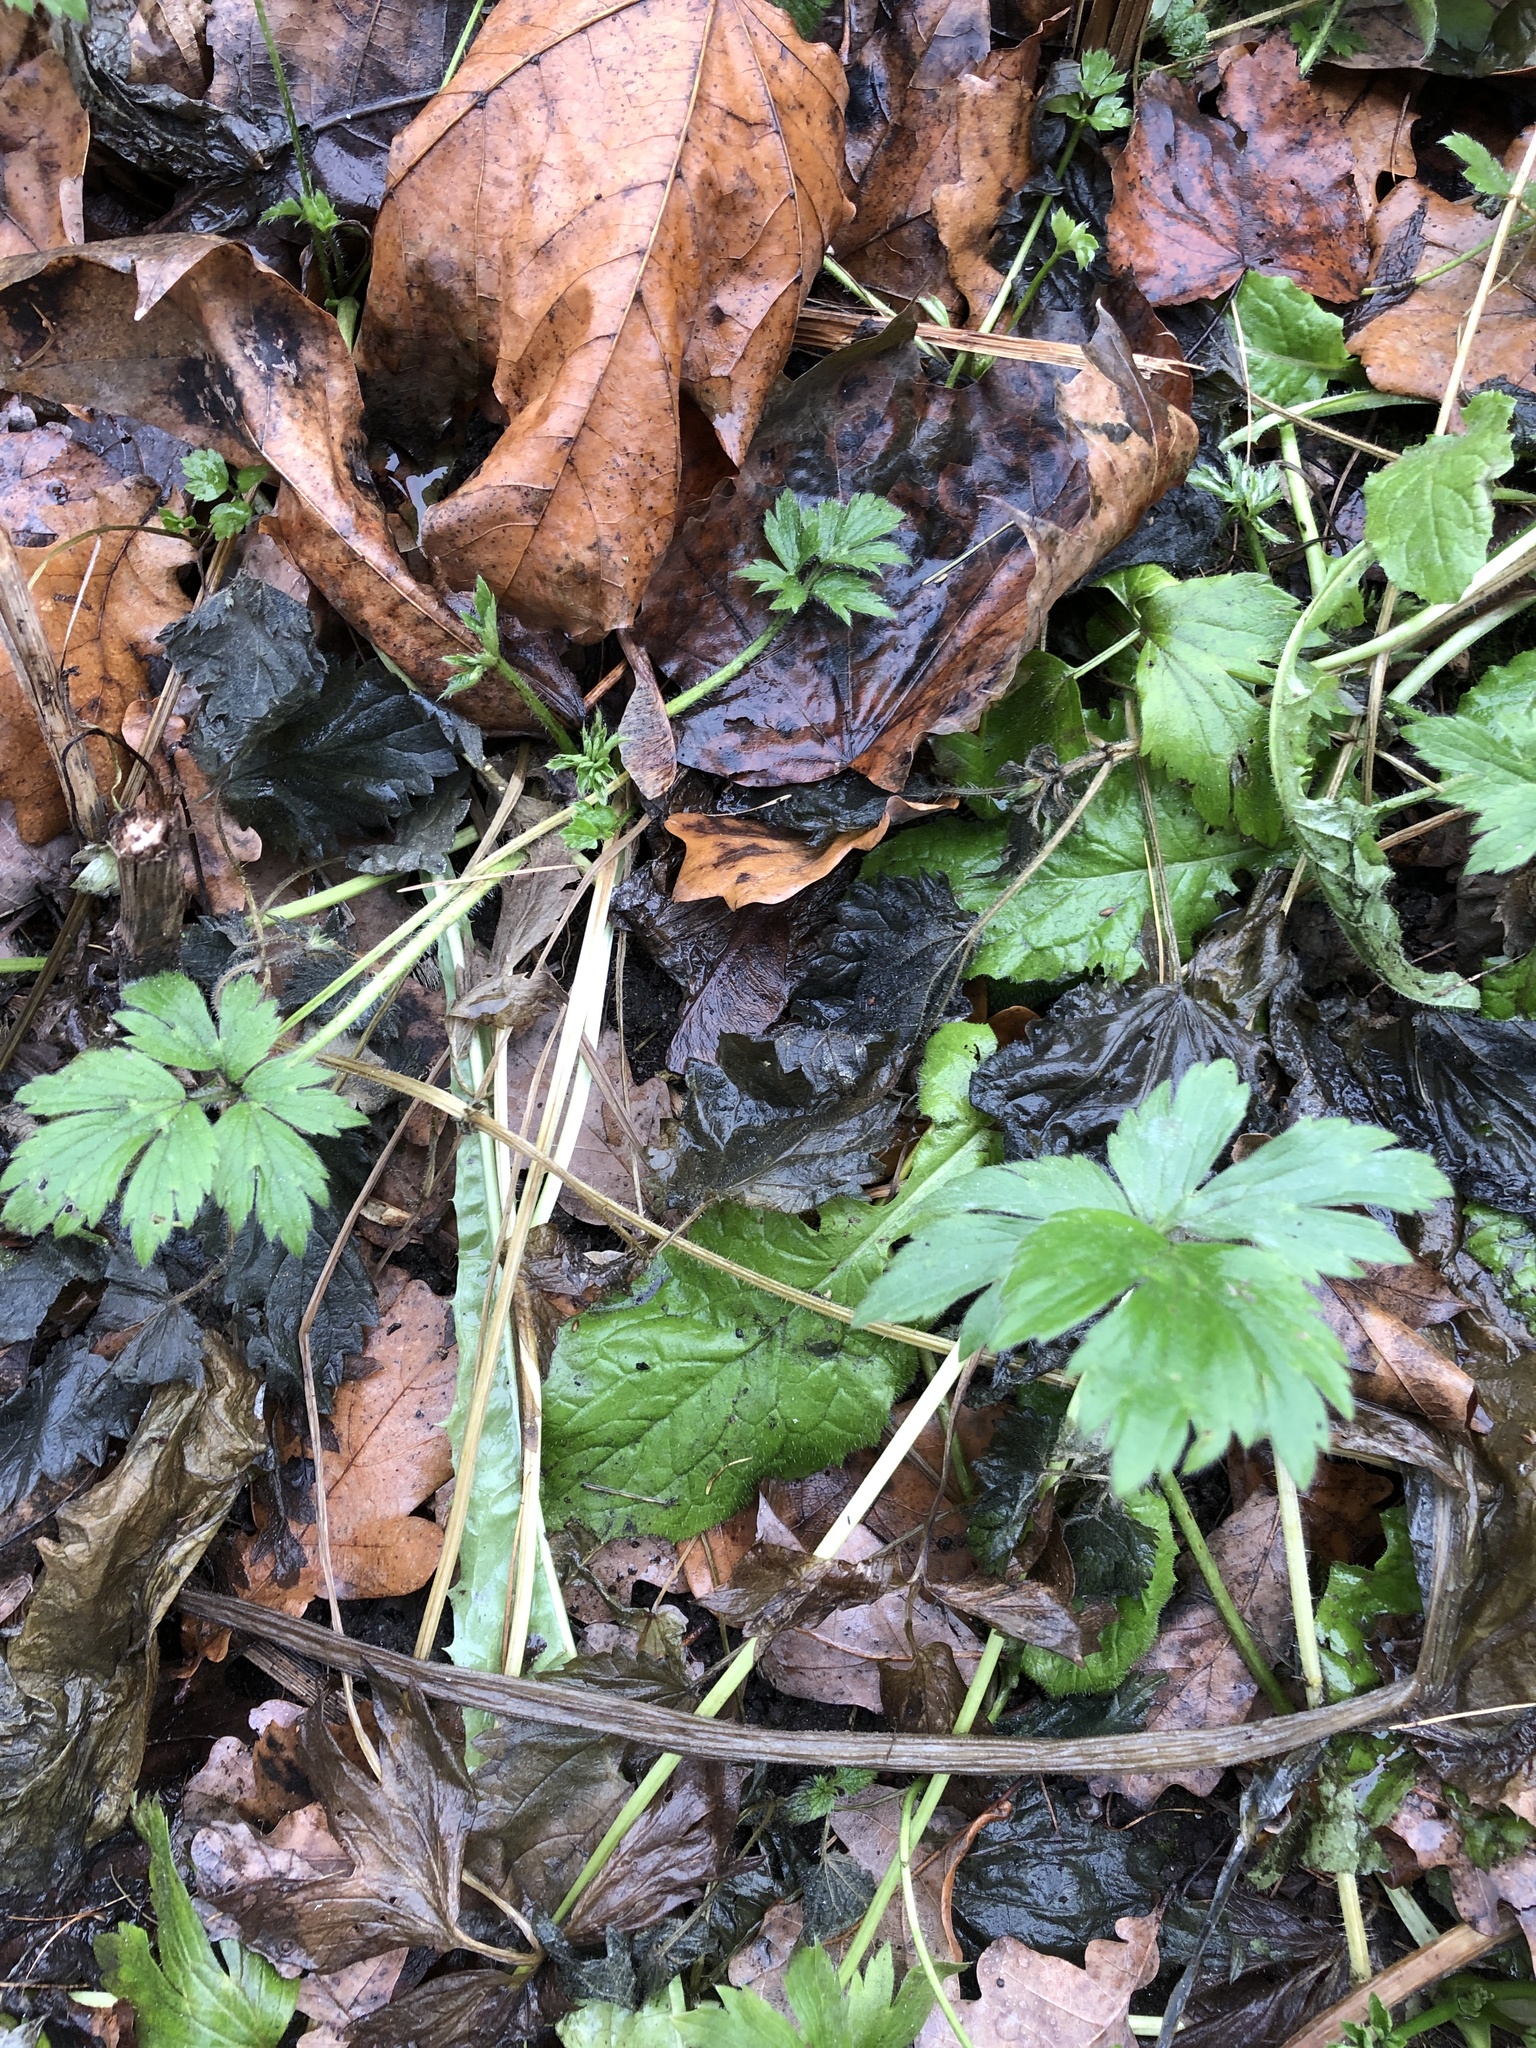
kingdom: Plantae
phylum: Tracheophyta
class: Magnoliopsida
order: Ranunculales
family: Ranunculaceae
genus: Ranunculus
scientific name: Ranunculus repens
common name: Creeping buttercup
